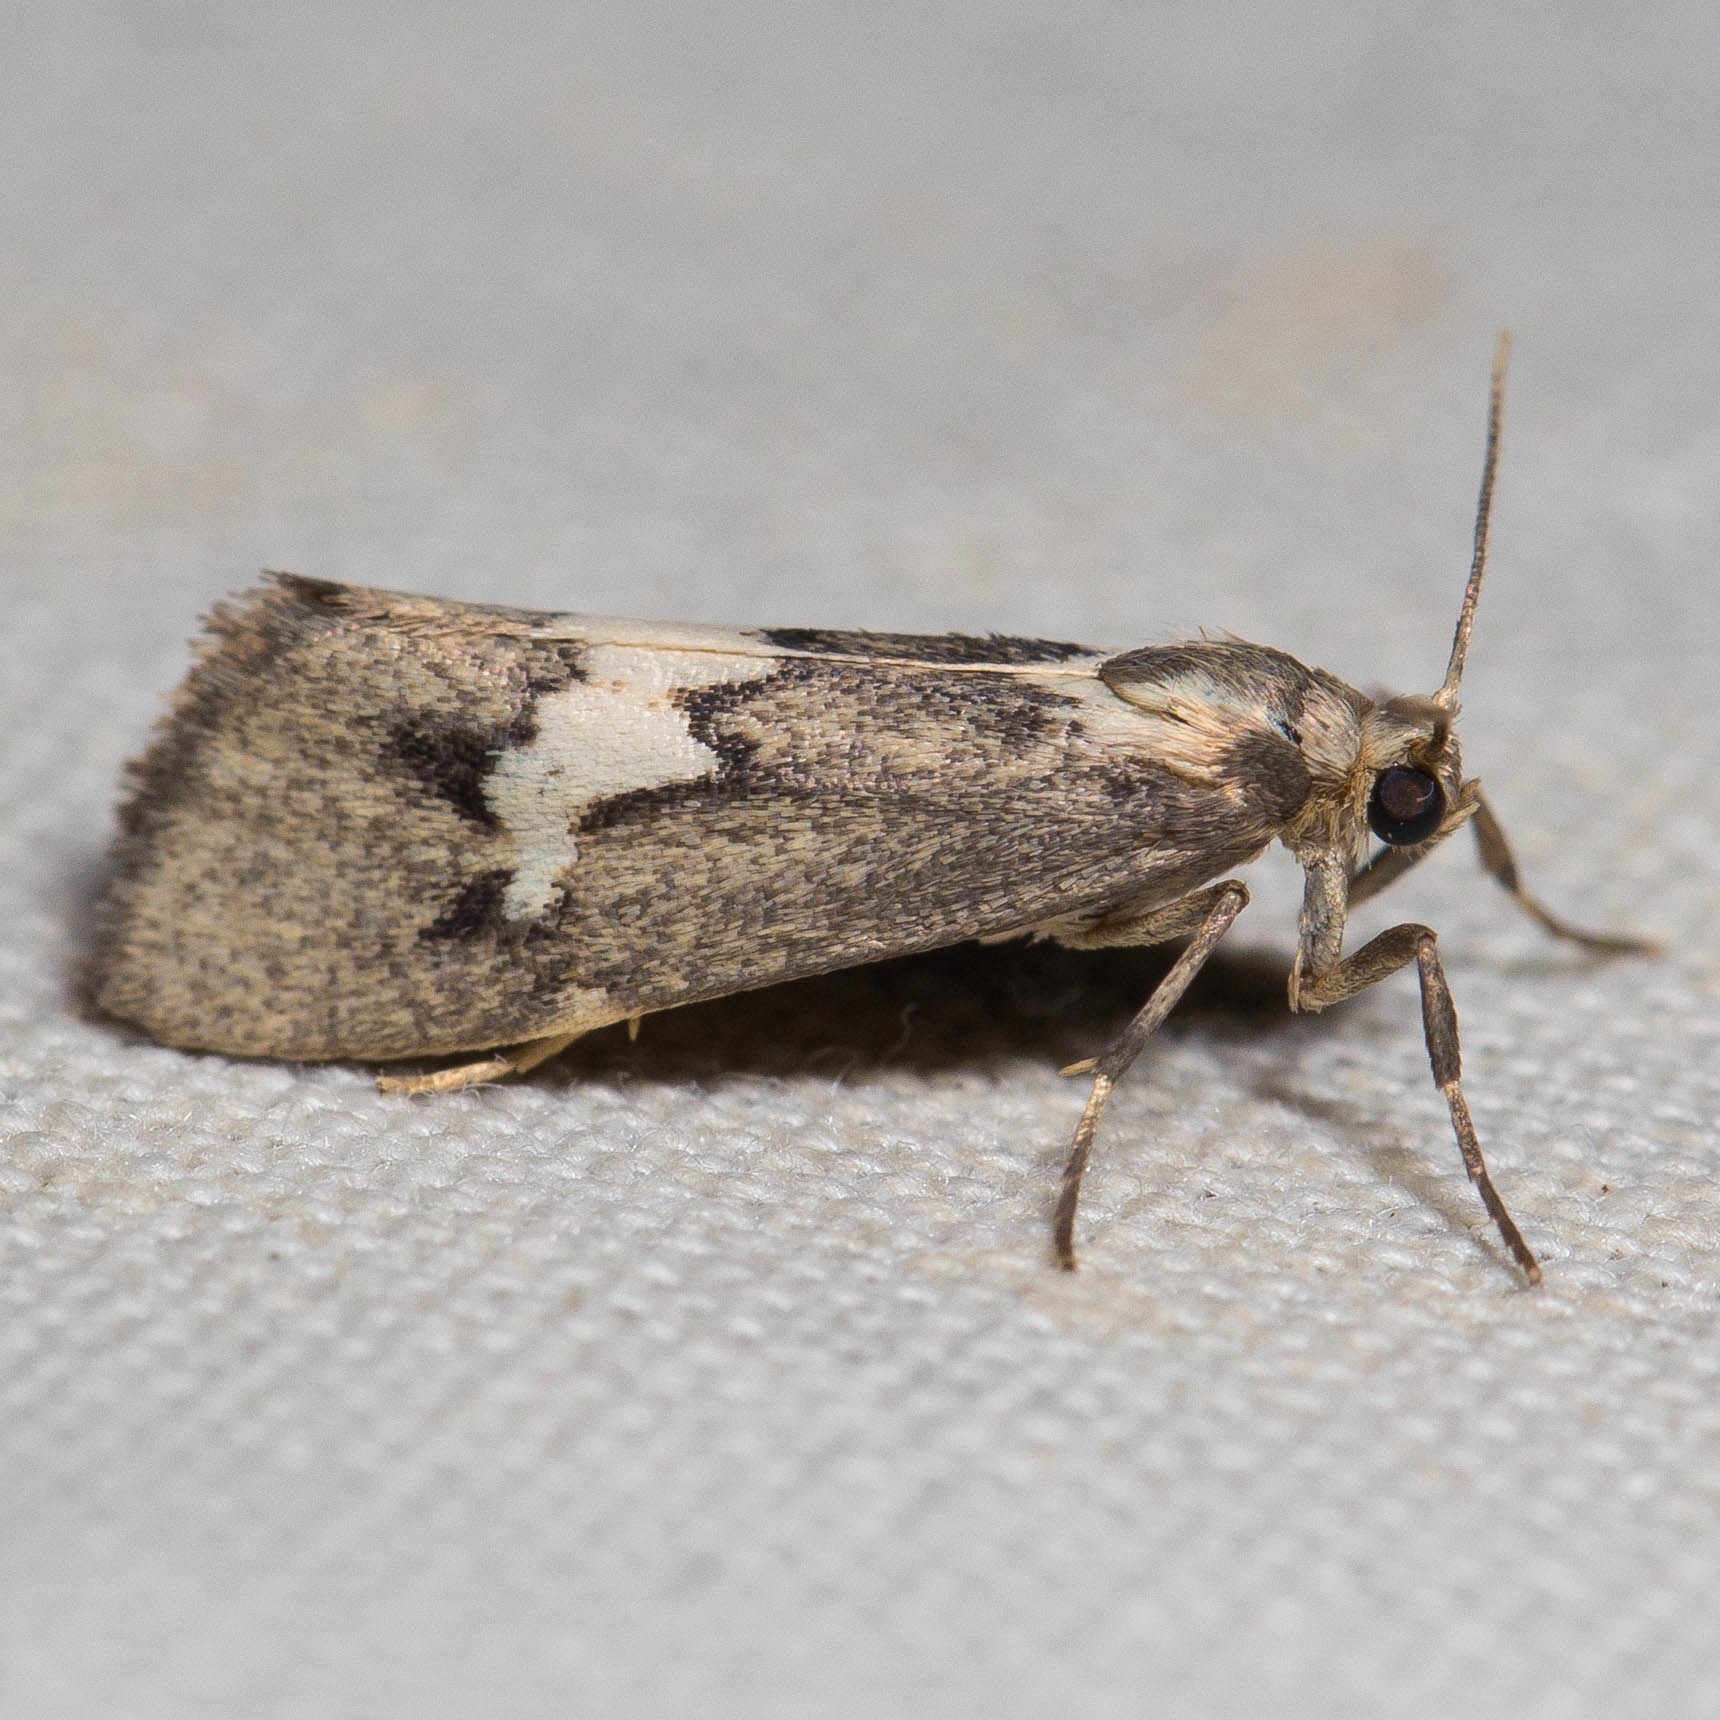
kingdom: Animalia
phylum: Arthropoda
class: Insecta
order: Lepidoptera
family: Erebidae
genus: Cisthene
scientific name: Cisthene deserta
